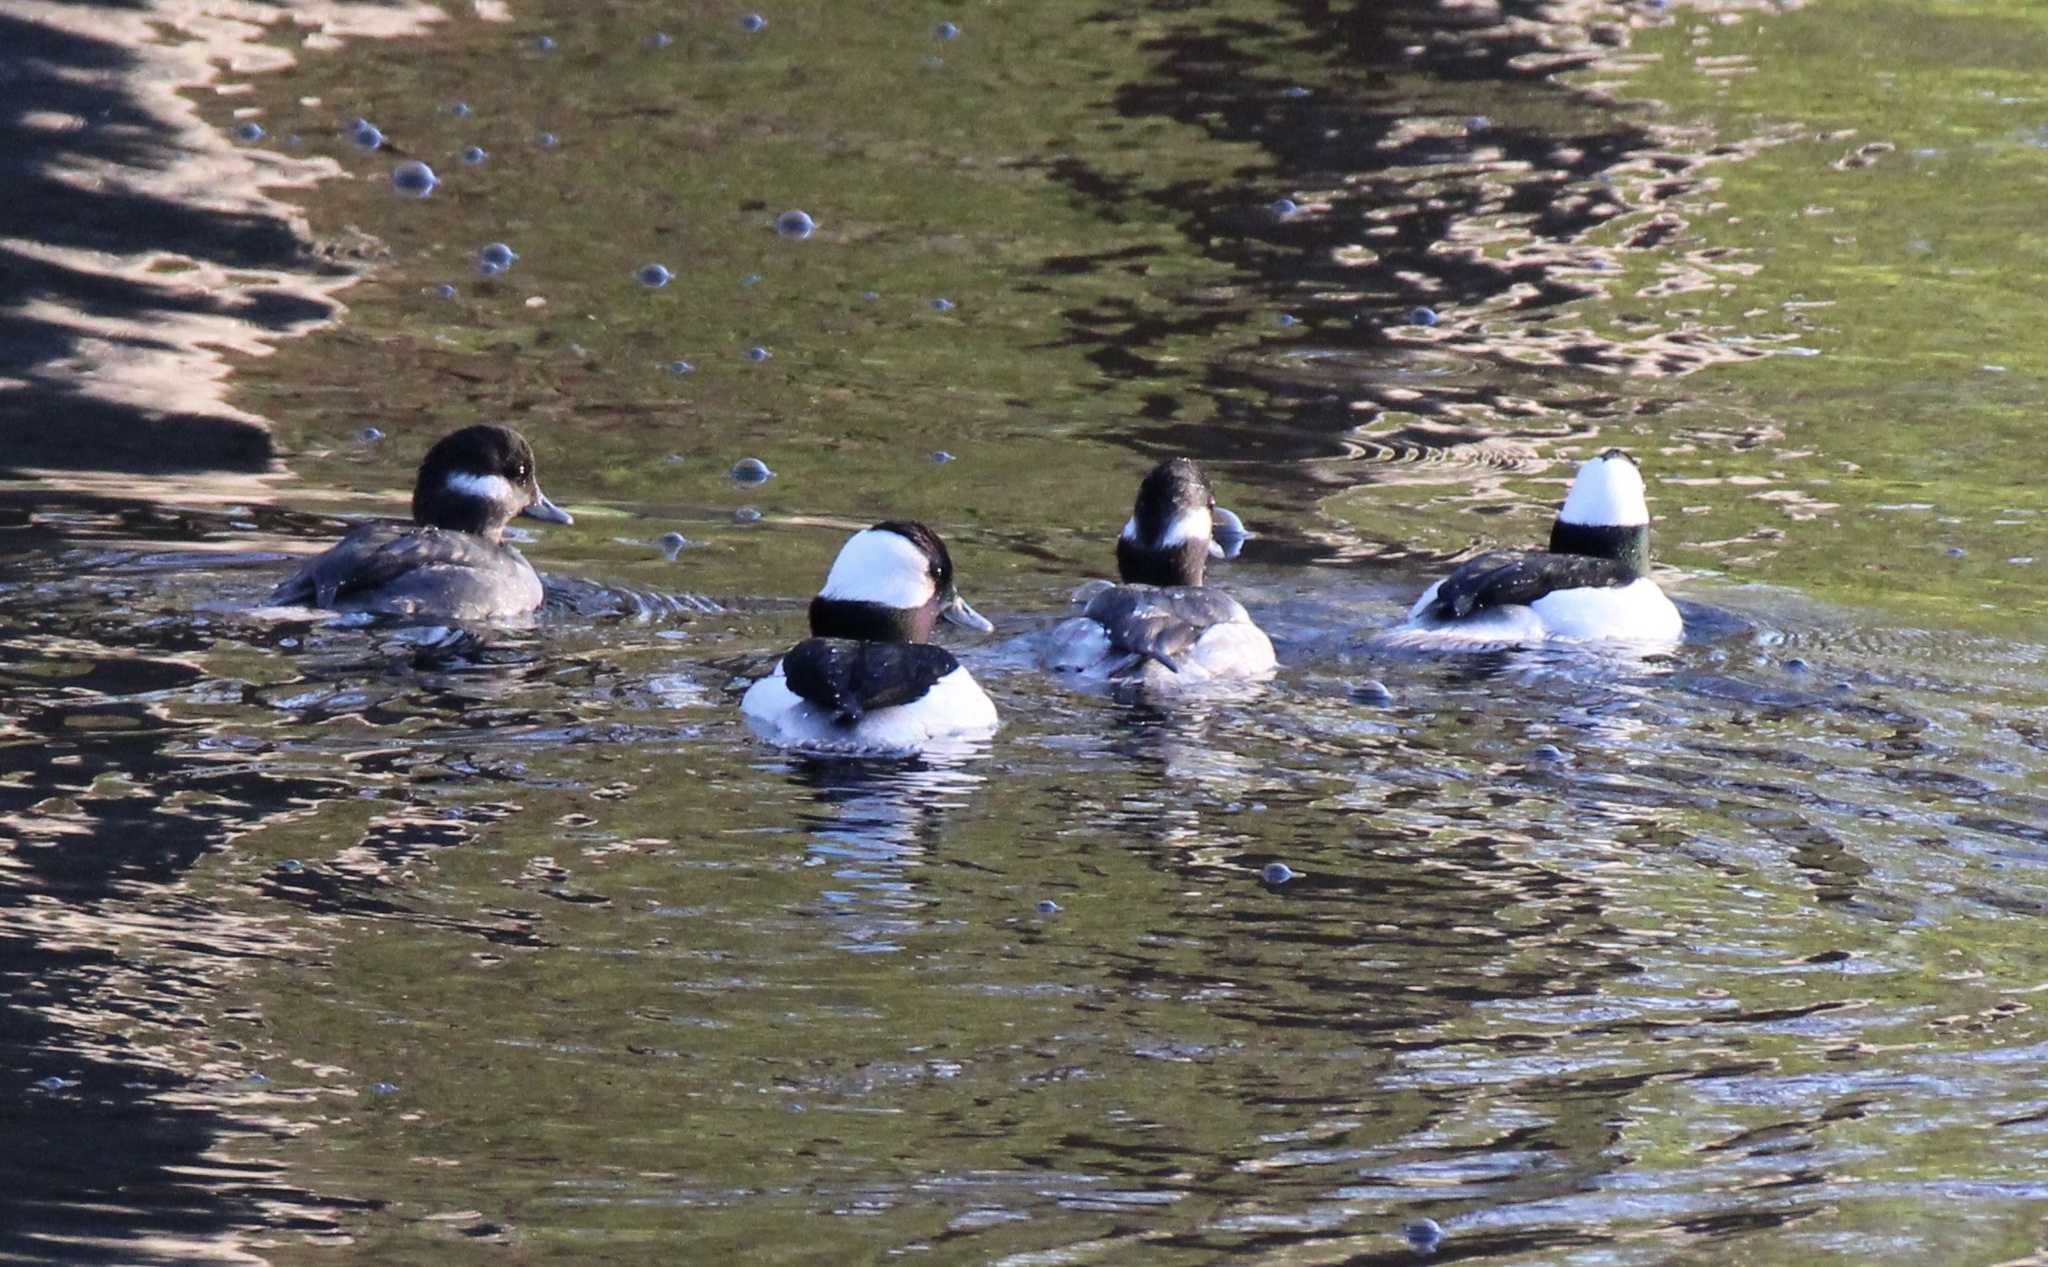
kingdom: Animalia
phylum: Chordata
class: Aves
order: Anseriformes
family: Anatidae
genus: Bucephala
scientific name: Bucephala albeola
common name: Bufflehead
